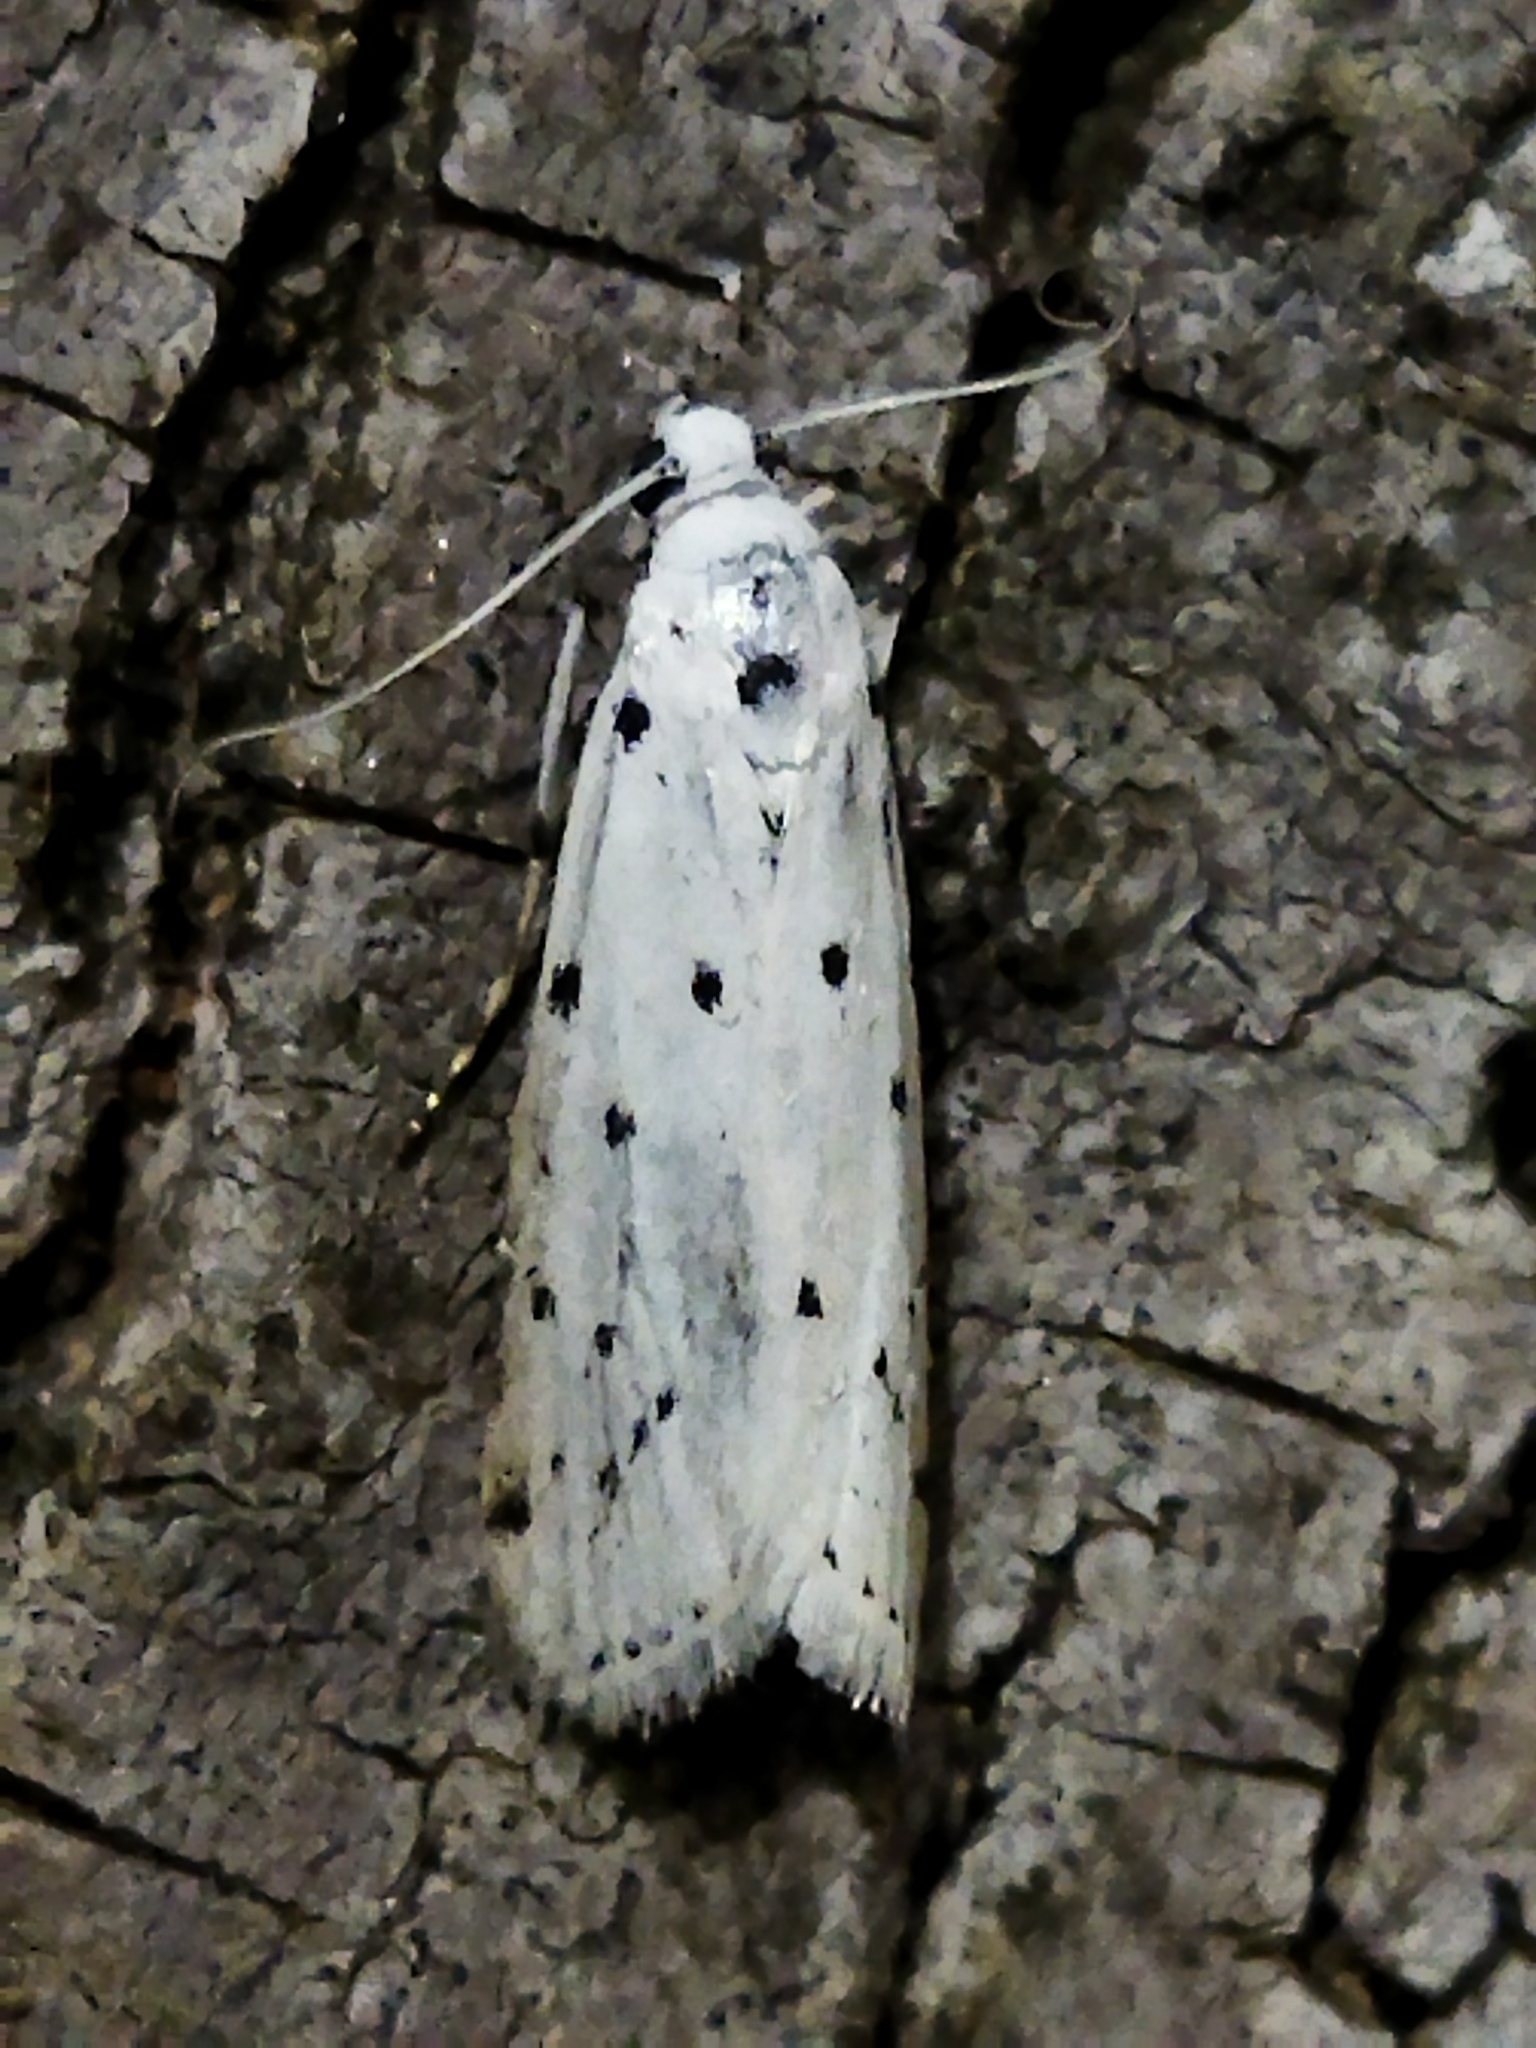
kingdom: Animalia
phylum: Arthropoda
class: Insecta
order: Lepidoptera
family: Pyralidae
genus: Myelois
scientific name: Myelois circumvoluta
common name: Thistle ermine
